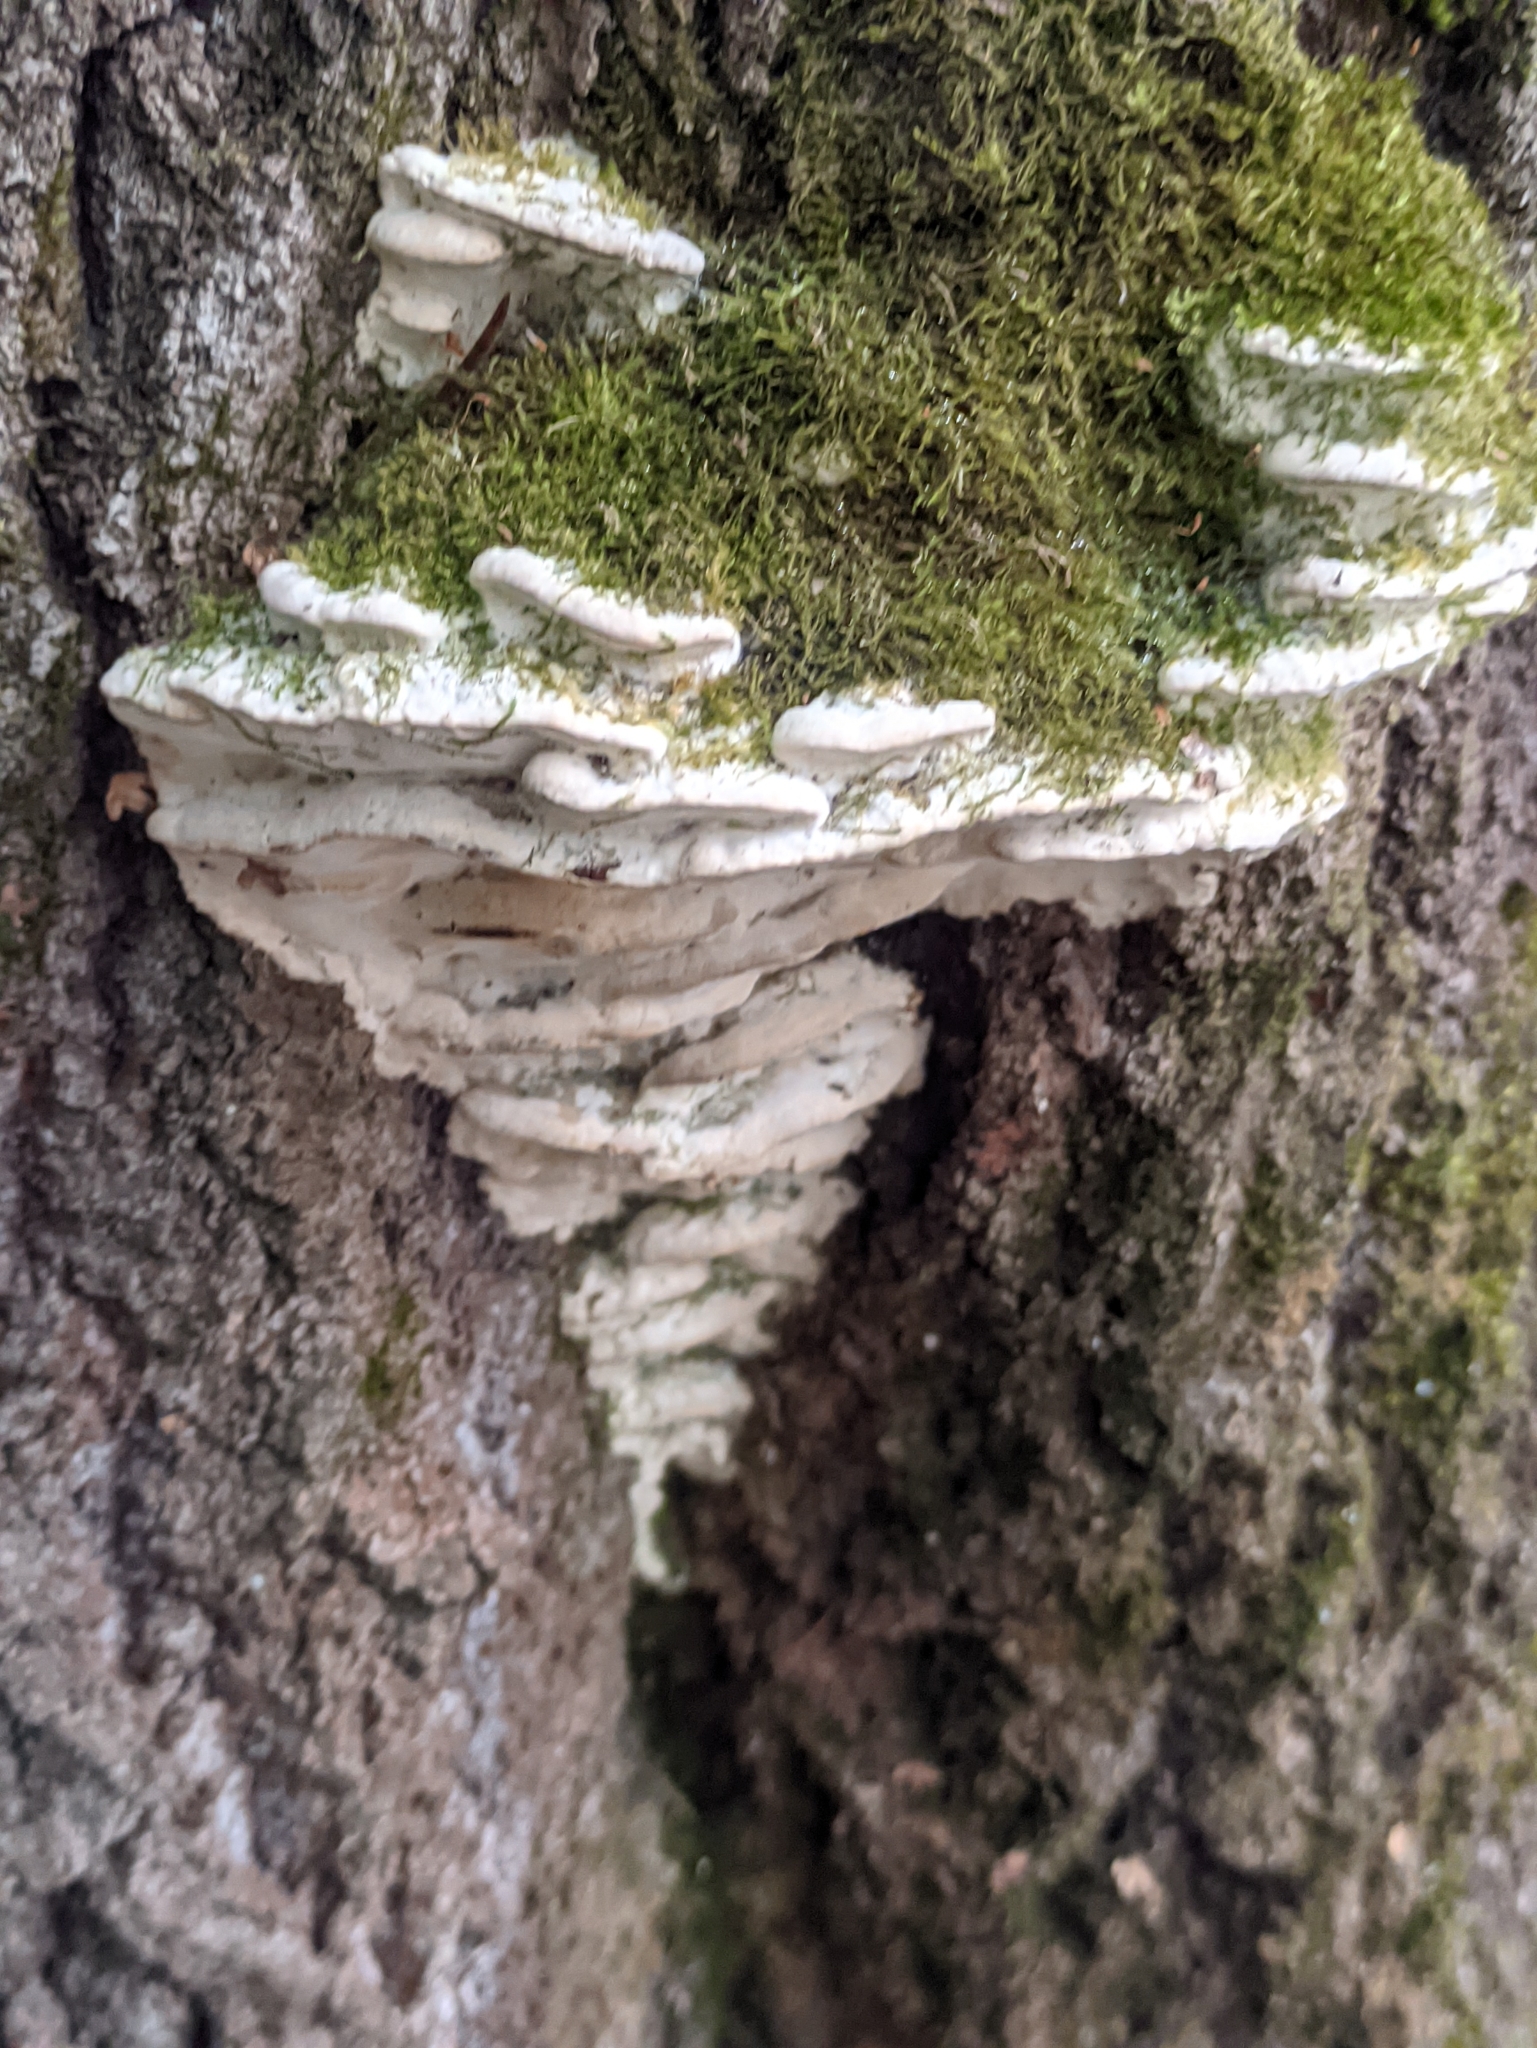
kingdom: Fungi
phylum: Basidiomycota
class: Agaricomycetes
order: Hymenochaetales
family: Oxyporaceae
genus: Oxyporus
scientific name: Oxyporus populinus
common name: Poplar bracket
